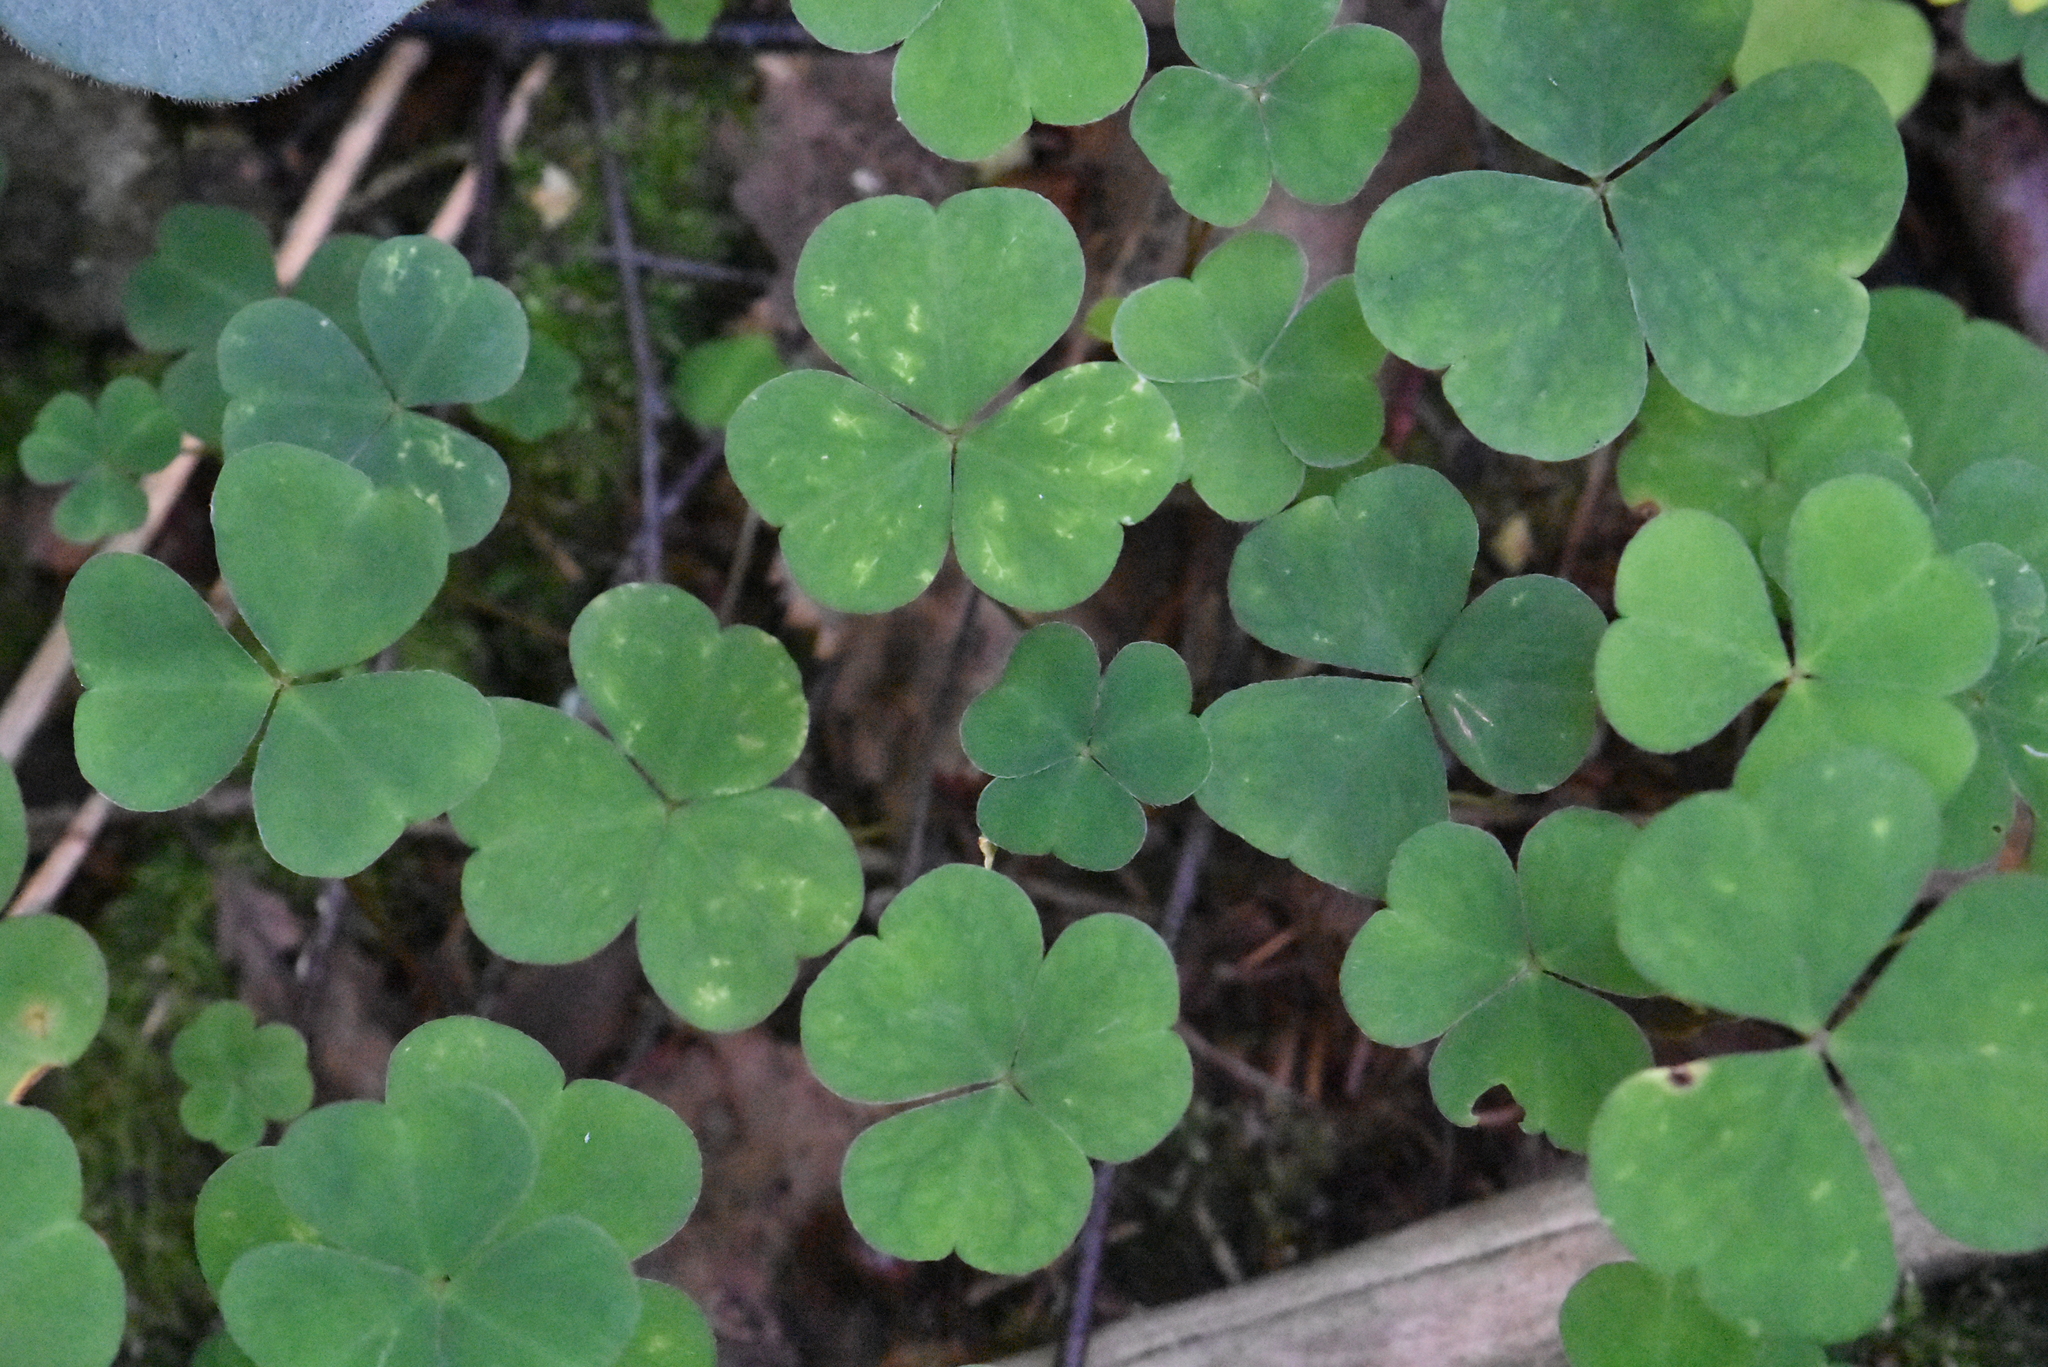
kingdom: Plantae
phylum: Tracheophyta
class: Magnoliopsida
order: Oxalidales
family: Oxalidaceae
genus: Oxalis
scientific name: Oxalis acetosella
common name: Wood-sorrel
